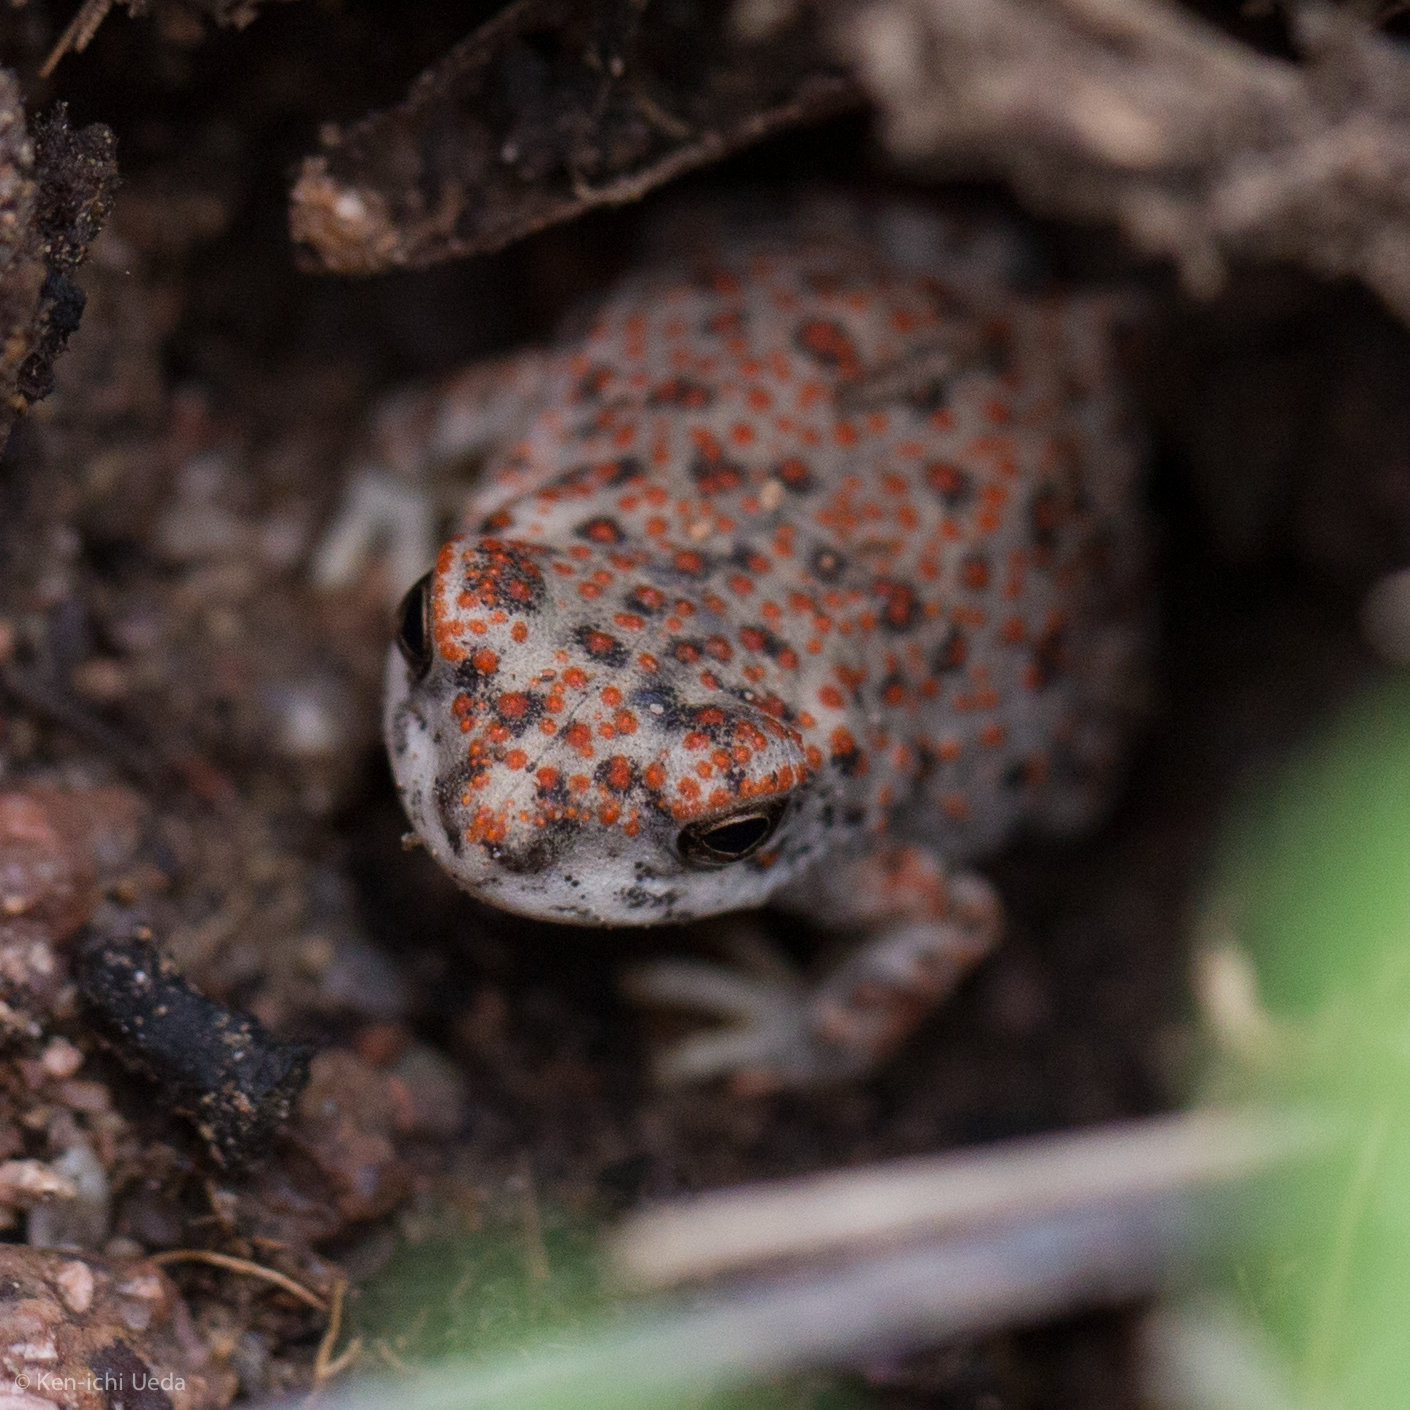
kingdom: Animalia
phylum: Chordata
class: Amphibia
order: Anura
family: Bufonidae
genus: Anaxyrus
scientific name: Anaxyrus punctatus
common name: Red-spotted toad
